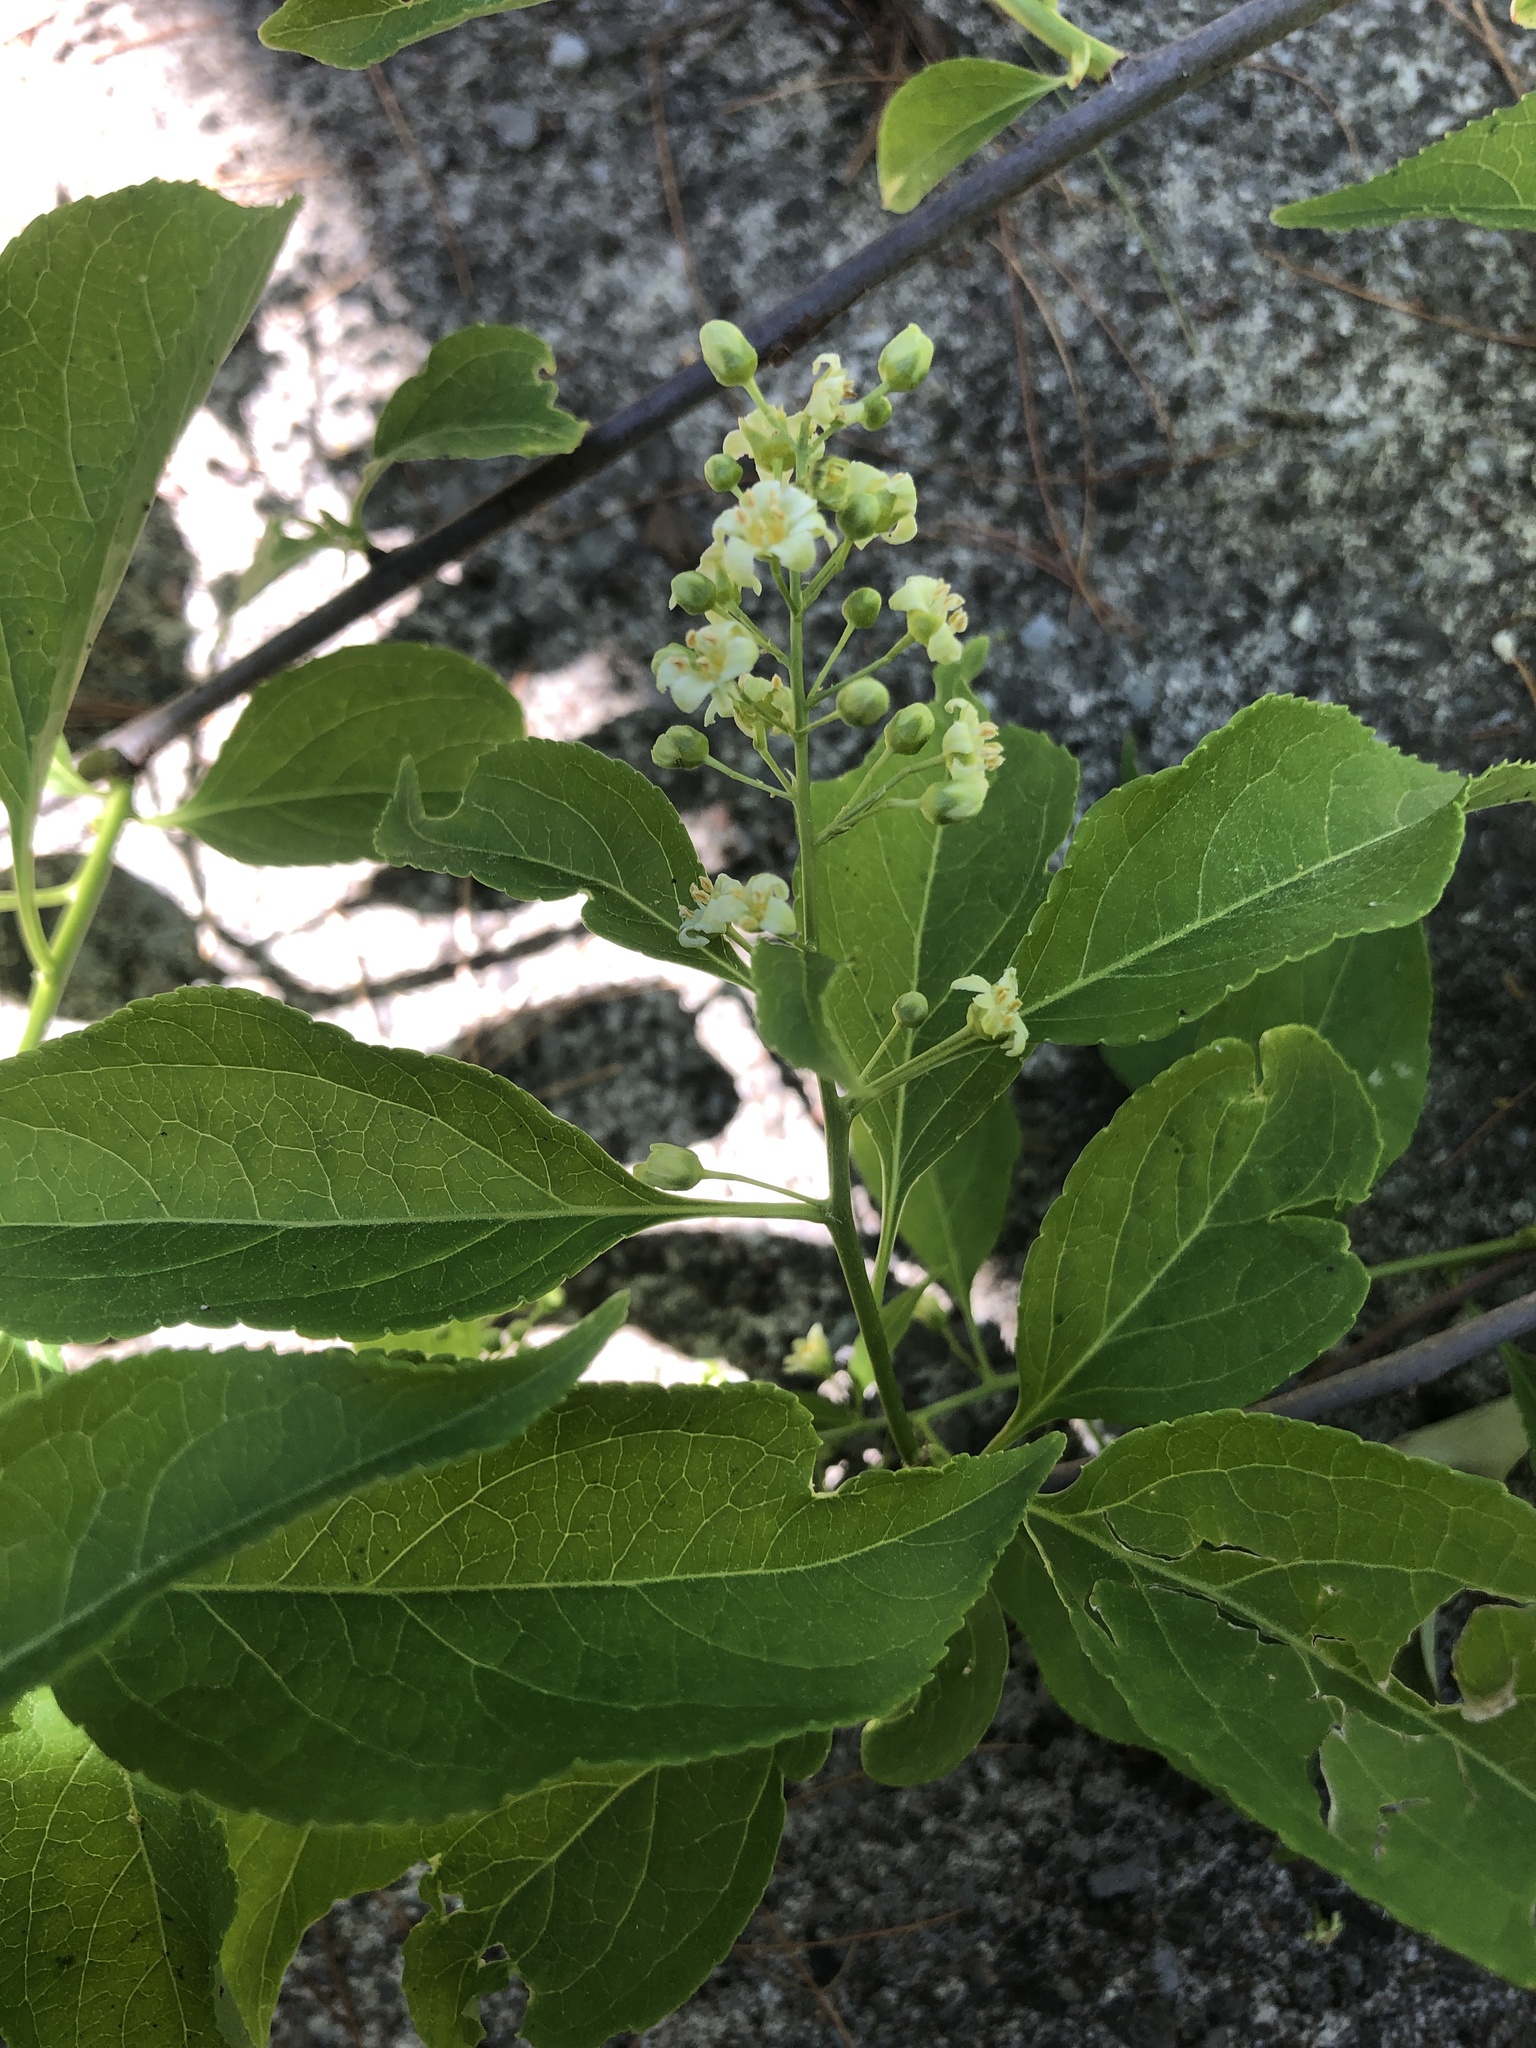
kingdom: Plantae
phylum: Tracheophyta
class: Magnoliopsida
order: Celastrales
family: Celastraceae
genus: Celastrus
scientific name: Celastrus scandens
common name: American bittersweet
